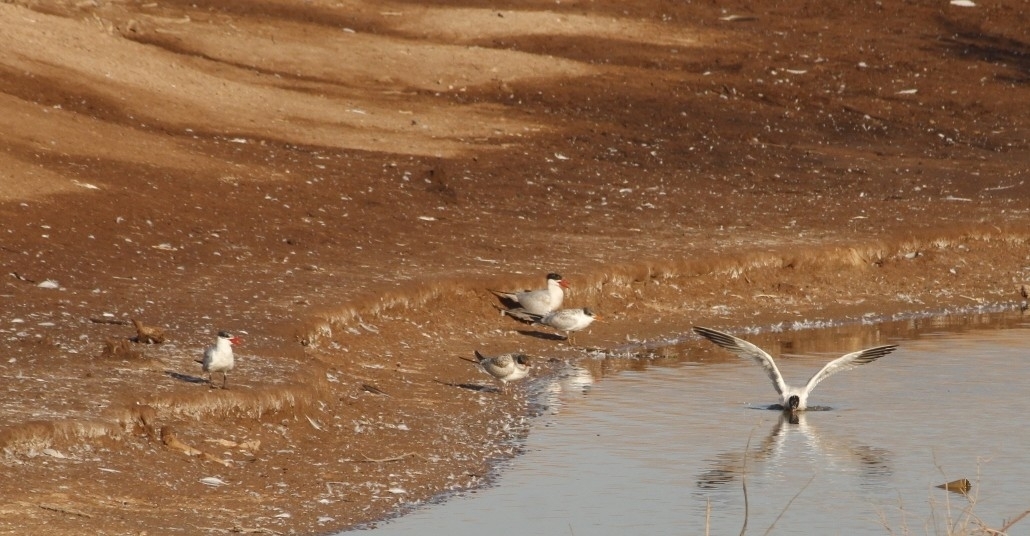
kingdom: Animalia
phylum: Chordata
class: Aves
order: Charadriiformes
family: Laridae
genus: Hydroprogne
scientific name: Hydroprogne caspia
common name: Caspian tern
